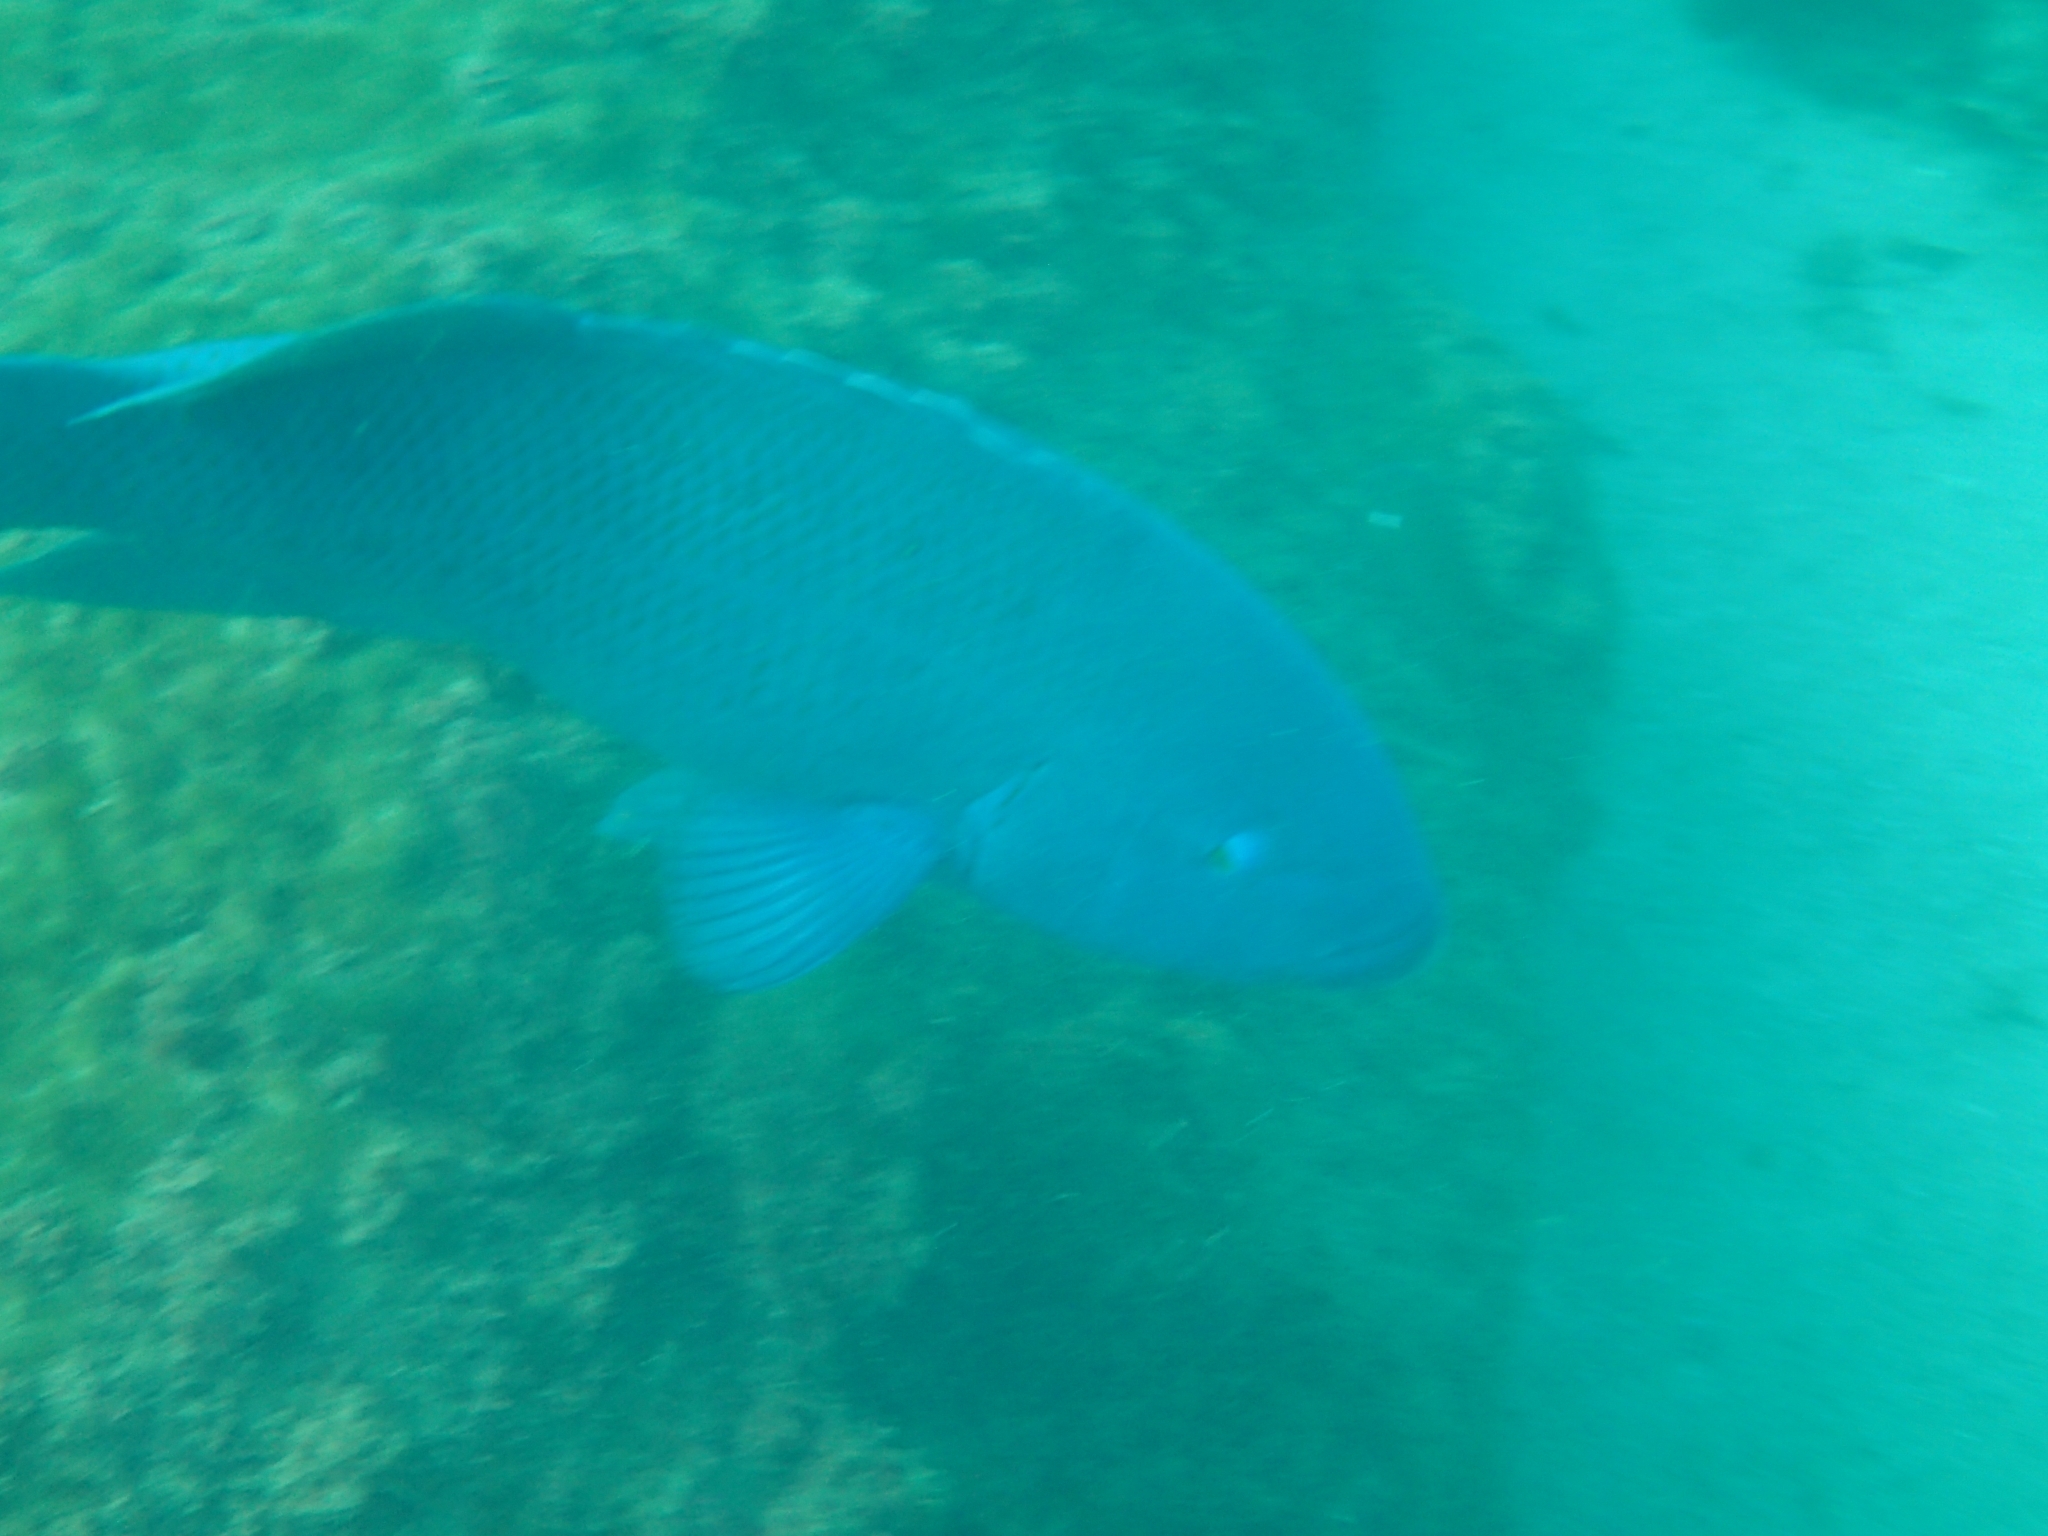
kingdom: Animalia
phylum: Chordata
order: Perciformes
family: Labridae
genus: Achoerodus
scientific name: Achoerodus viridis
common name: Brown groper
